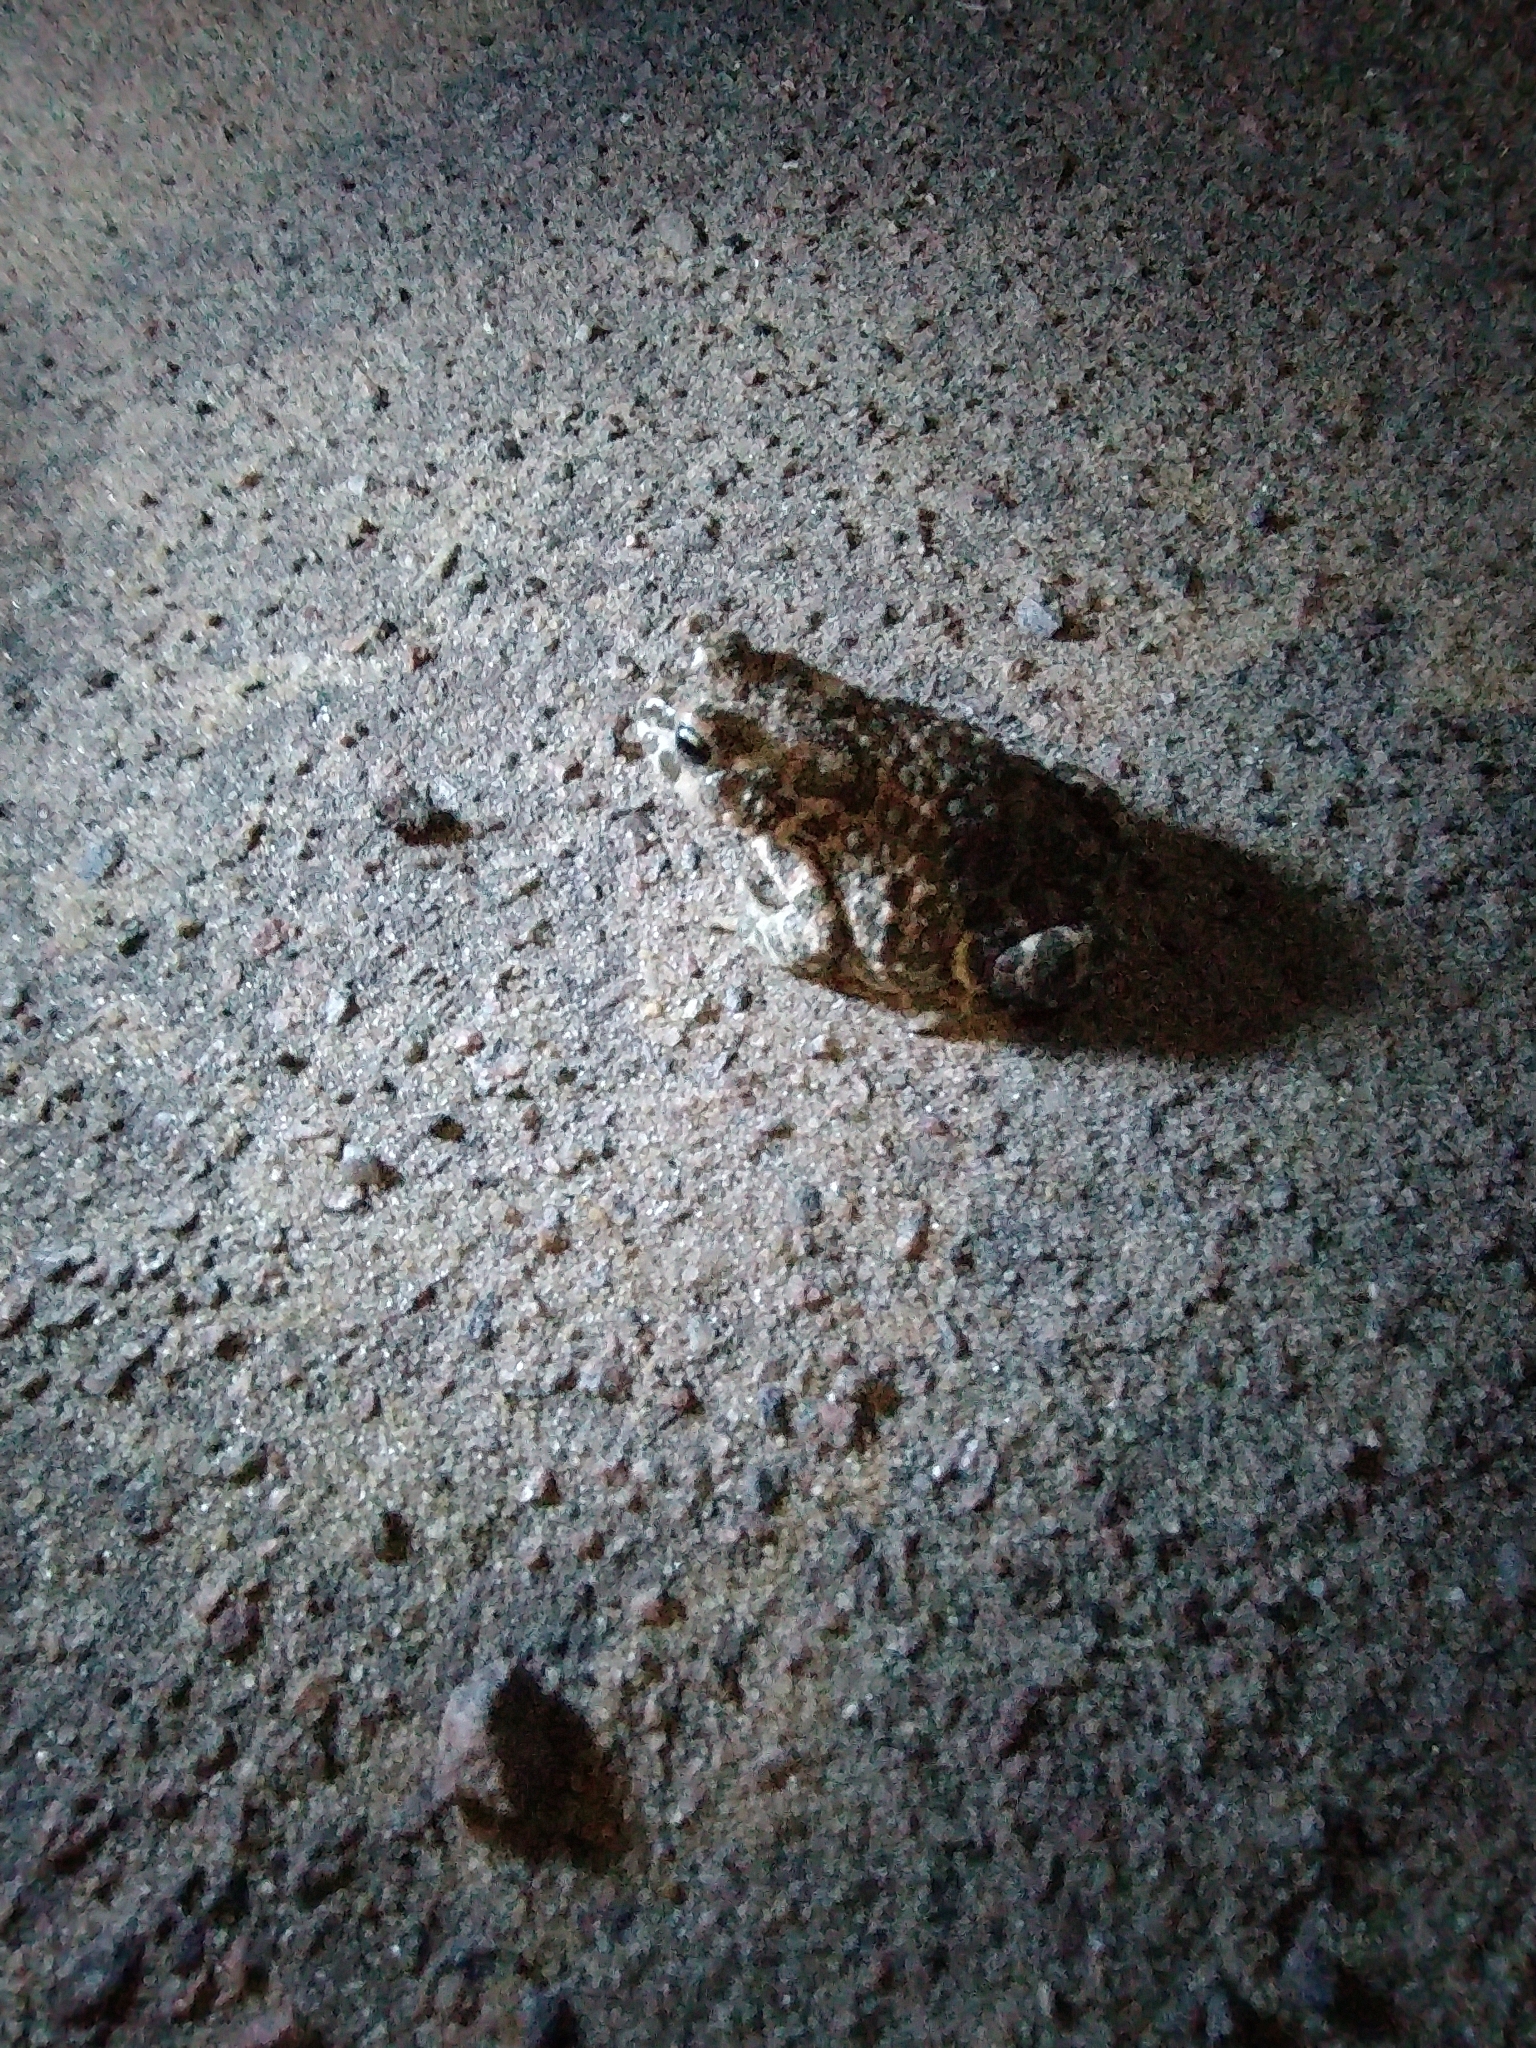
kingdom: Animalia
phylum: Chordata
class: Amphibia
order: Anura
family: Bufonidae
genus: Bufotes
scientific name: Bufotes viridis
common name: European green toad
